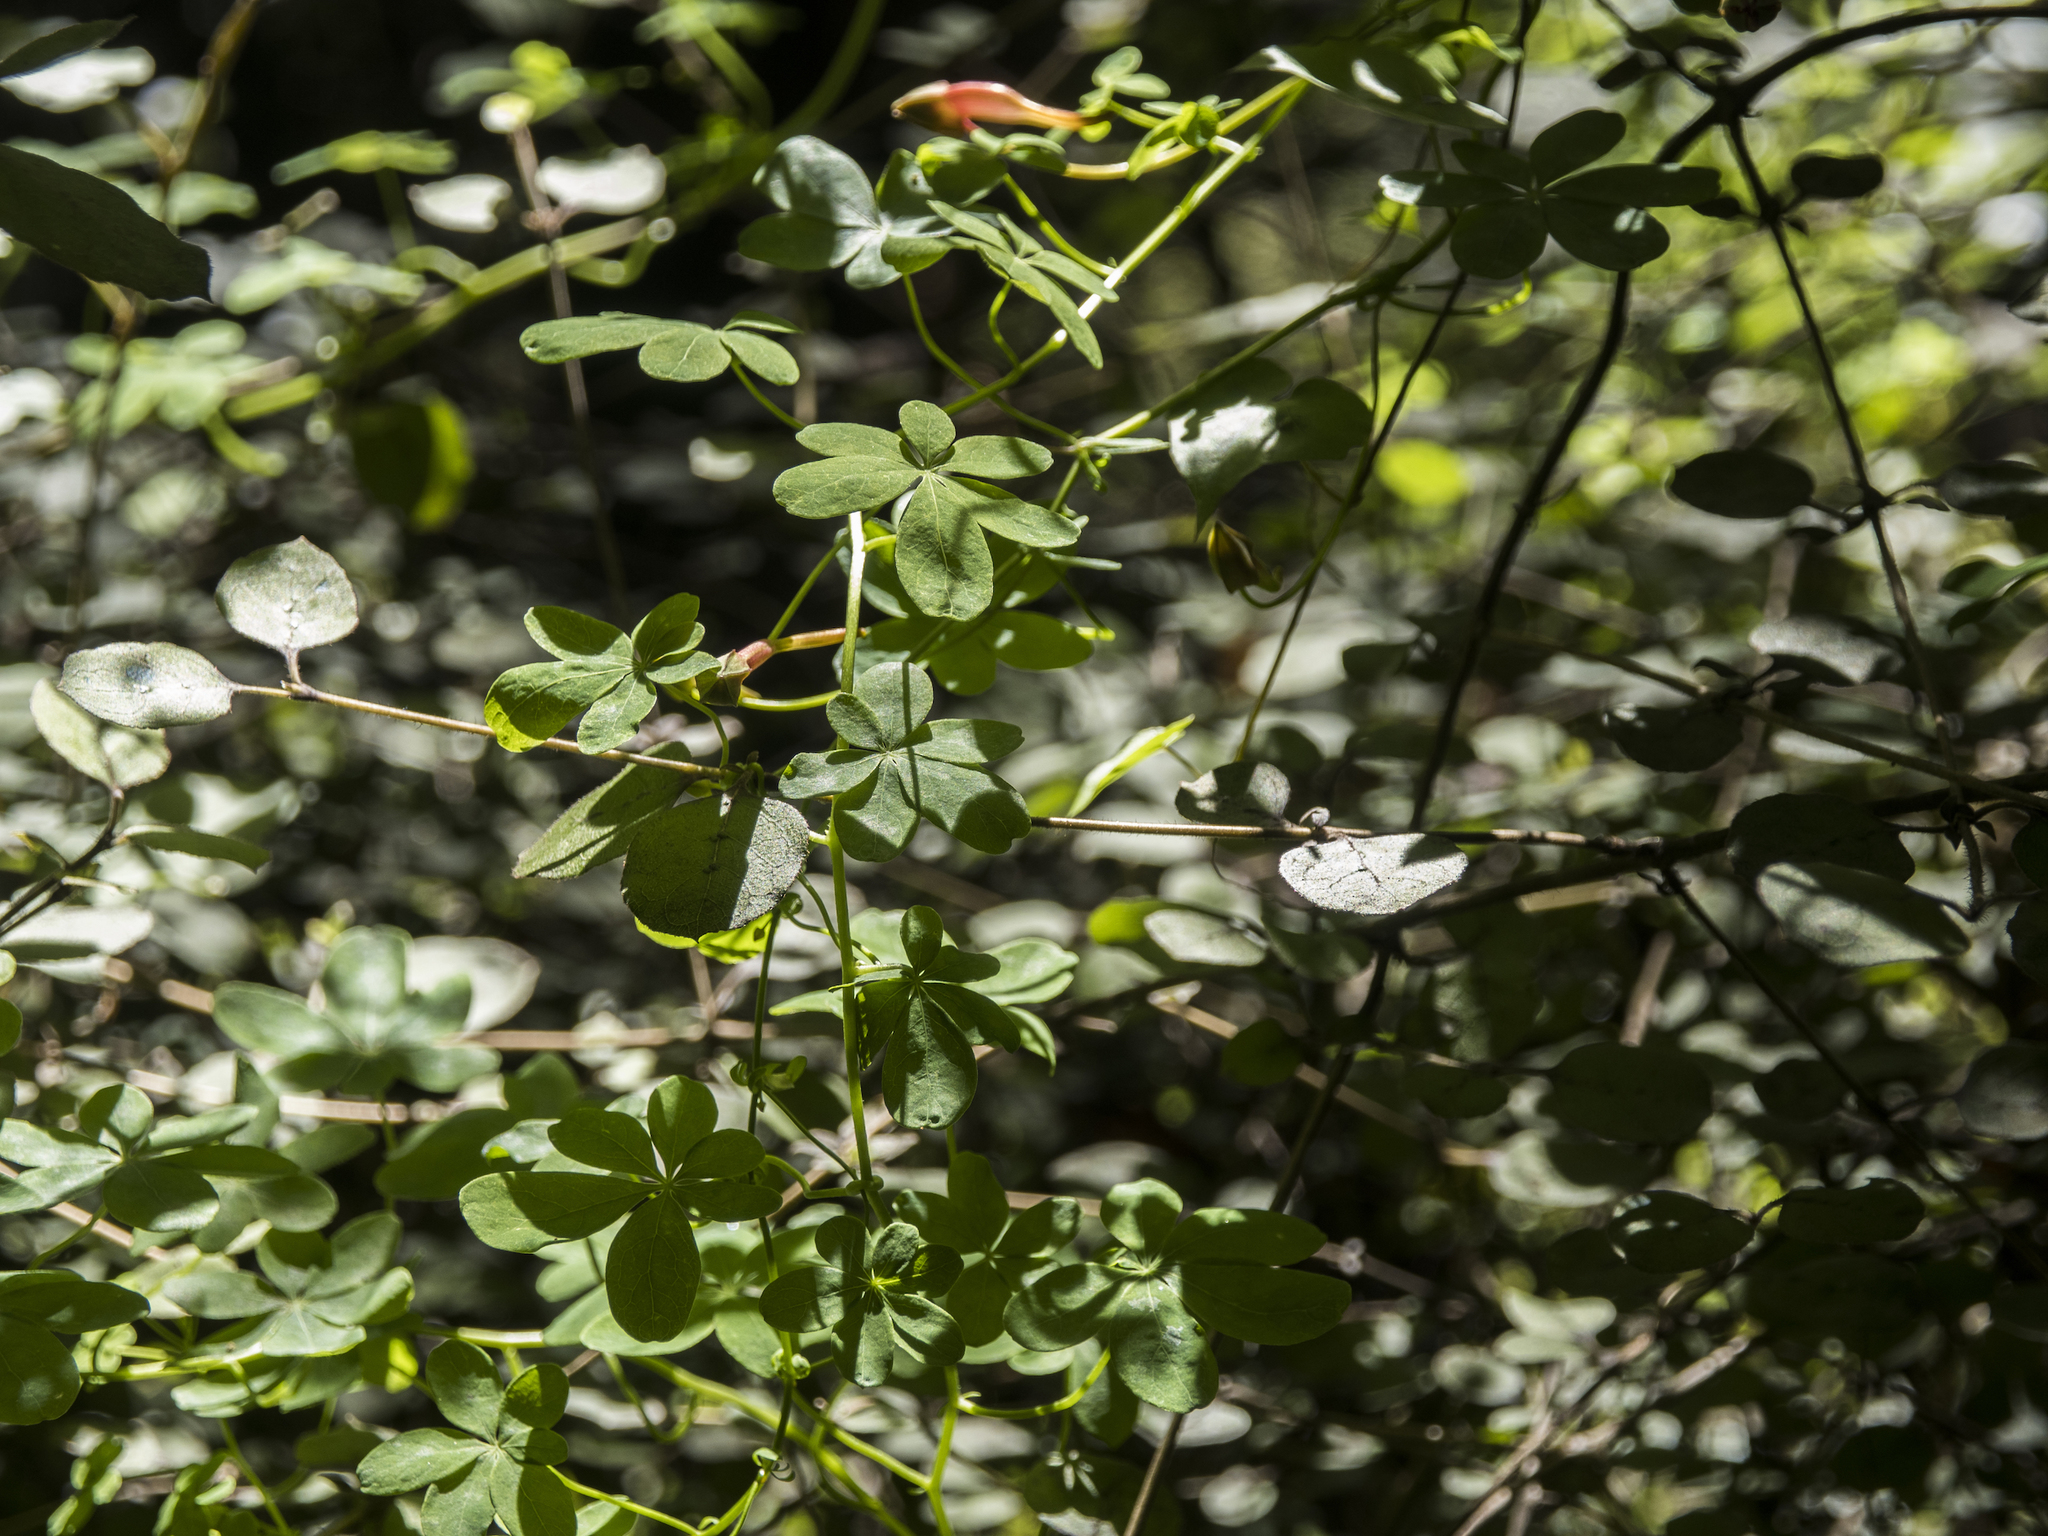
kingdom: Plantae
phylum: Tracheophyta
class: Magnoliopsida
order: Brassicales
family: Tropaeolaceae
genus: Tropaeolum
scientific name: Tropaeolum speciosum
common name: Flame nasturtium
